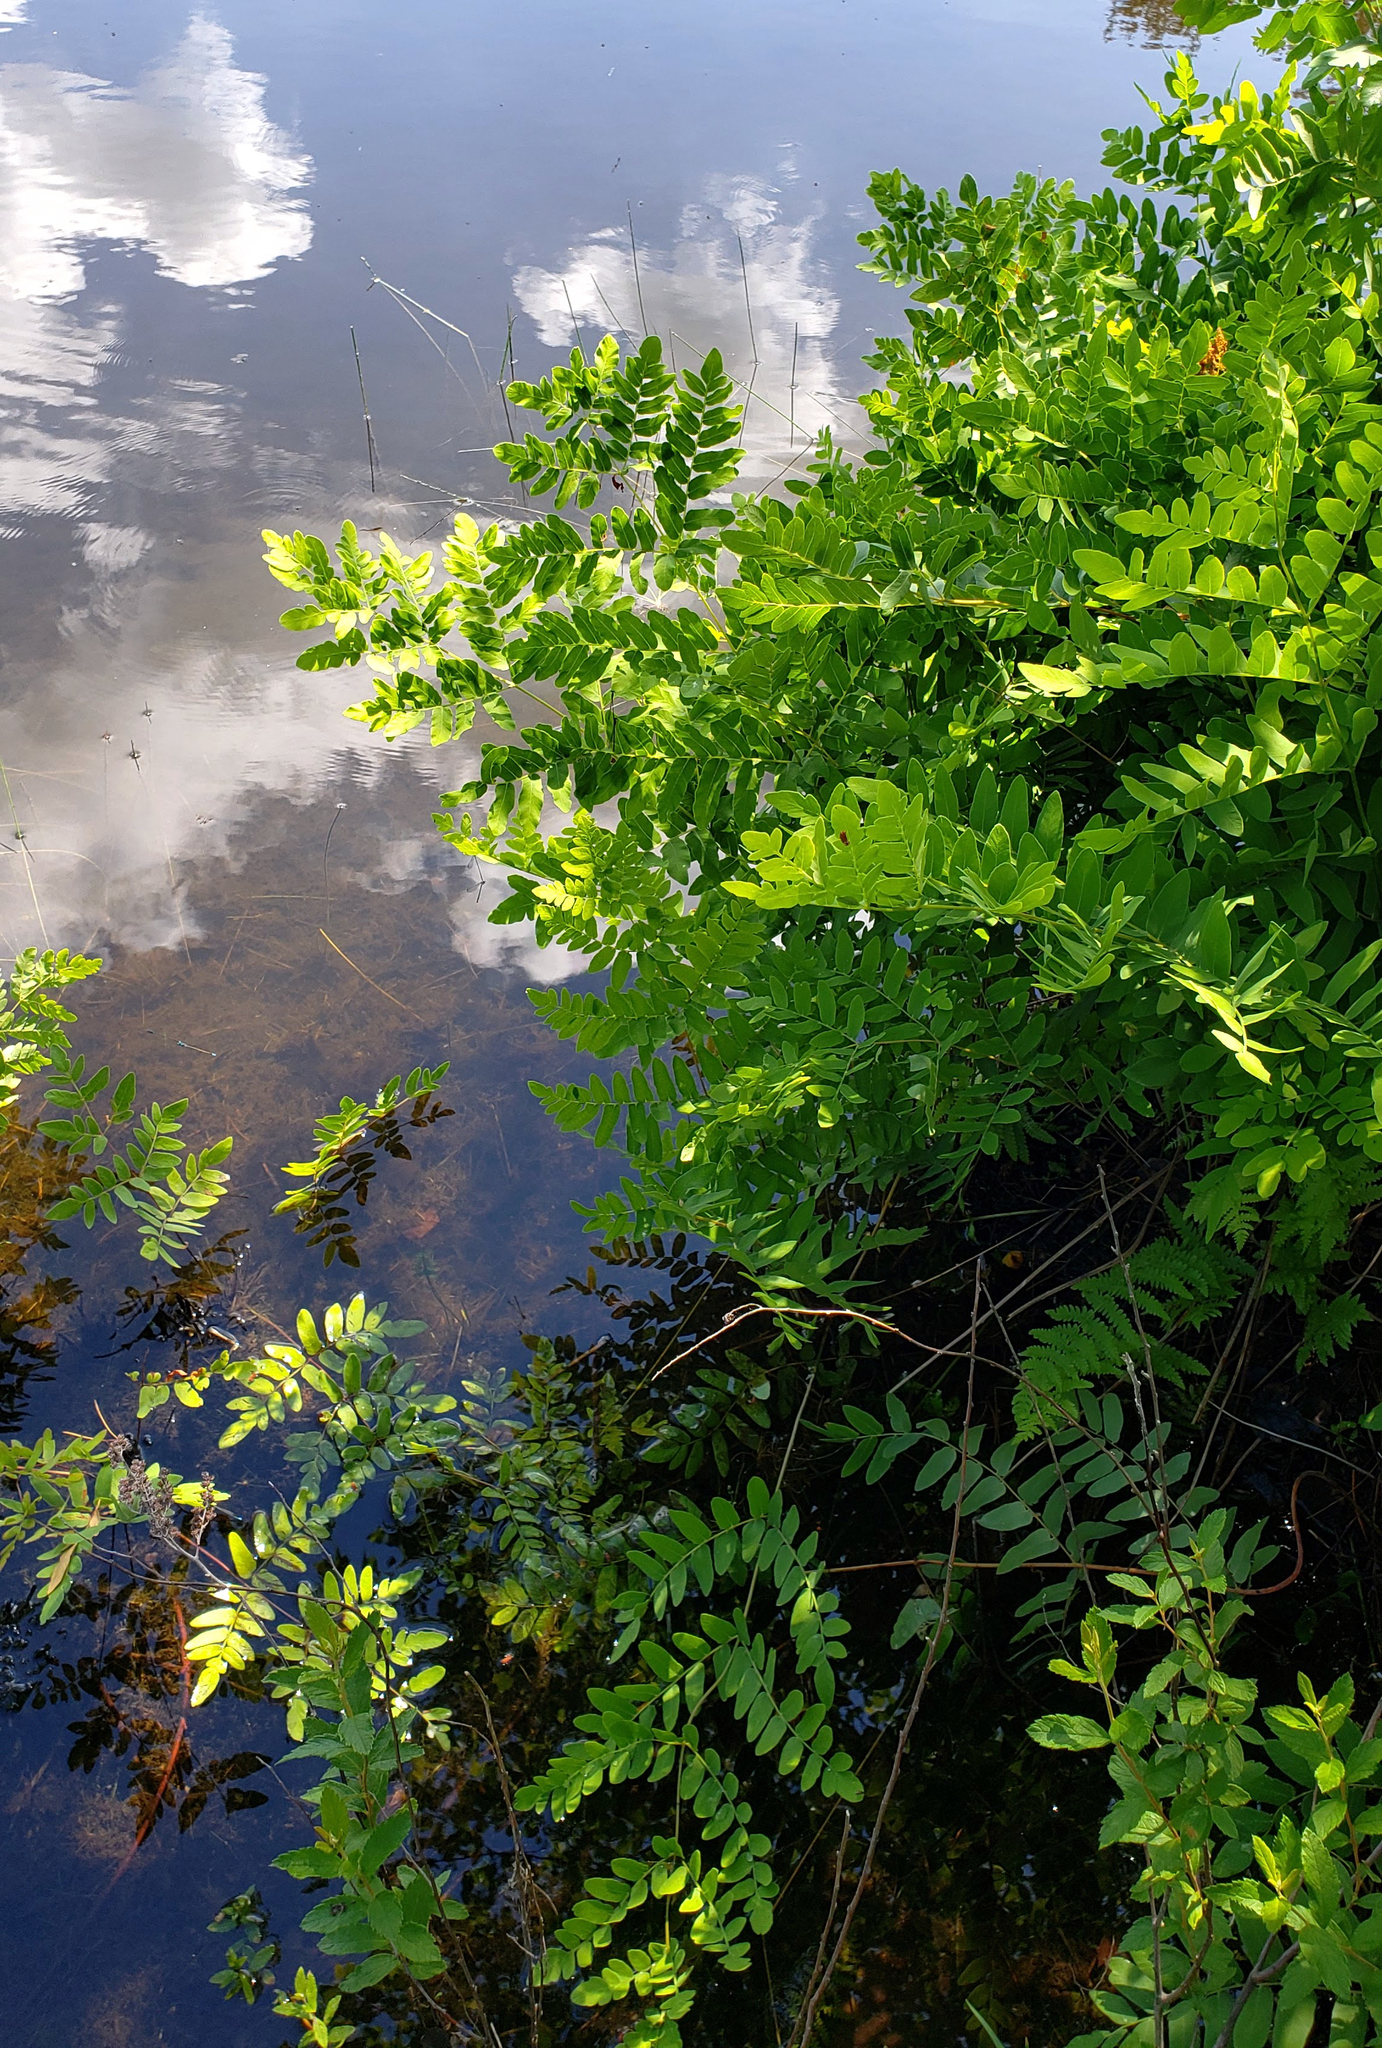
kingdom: Plantae
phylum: Tracheophyta
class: Polypodiopsida
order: Osmundales
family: Osmundaceae
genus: Osmunda
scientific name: Osmunda spectabilis
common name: American royal fern
